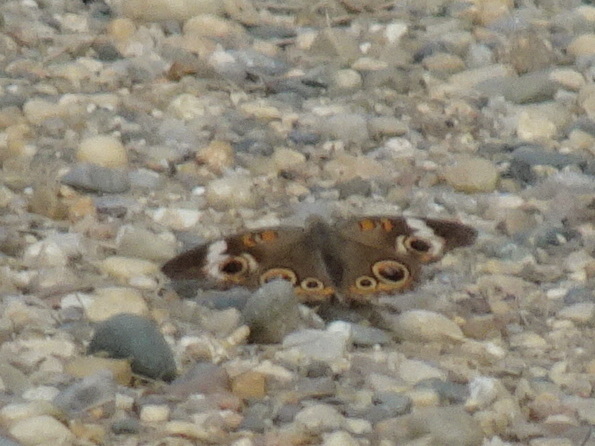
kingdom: Animalia
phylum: Arthropoda
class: Insecta
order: Lepidoptera
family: Nymphalidae
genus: Junonia
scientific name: Junonia coenia
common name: Common buckeye
